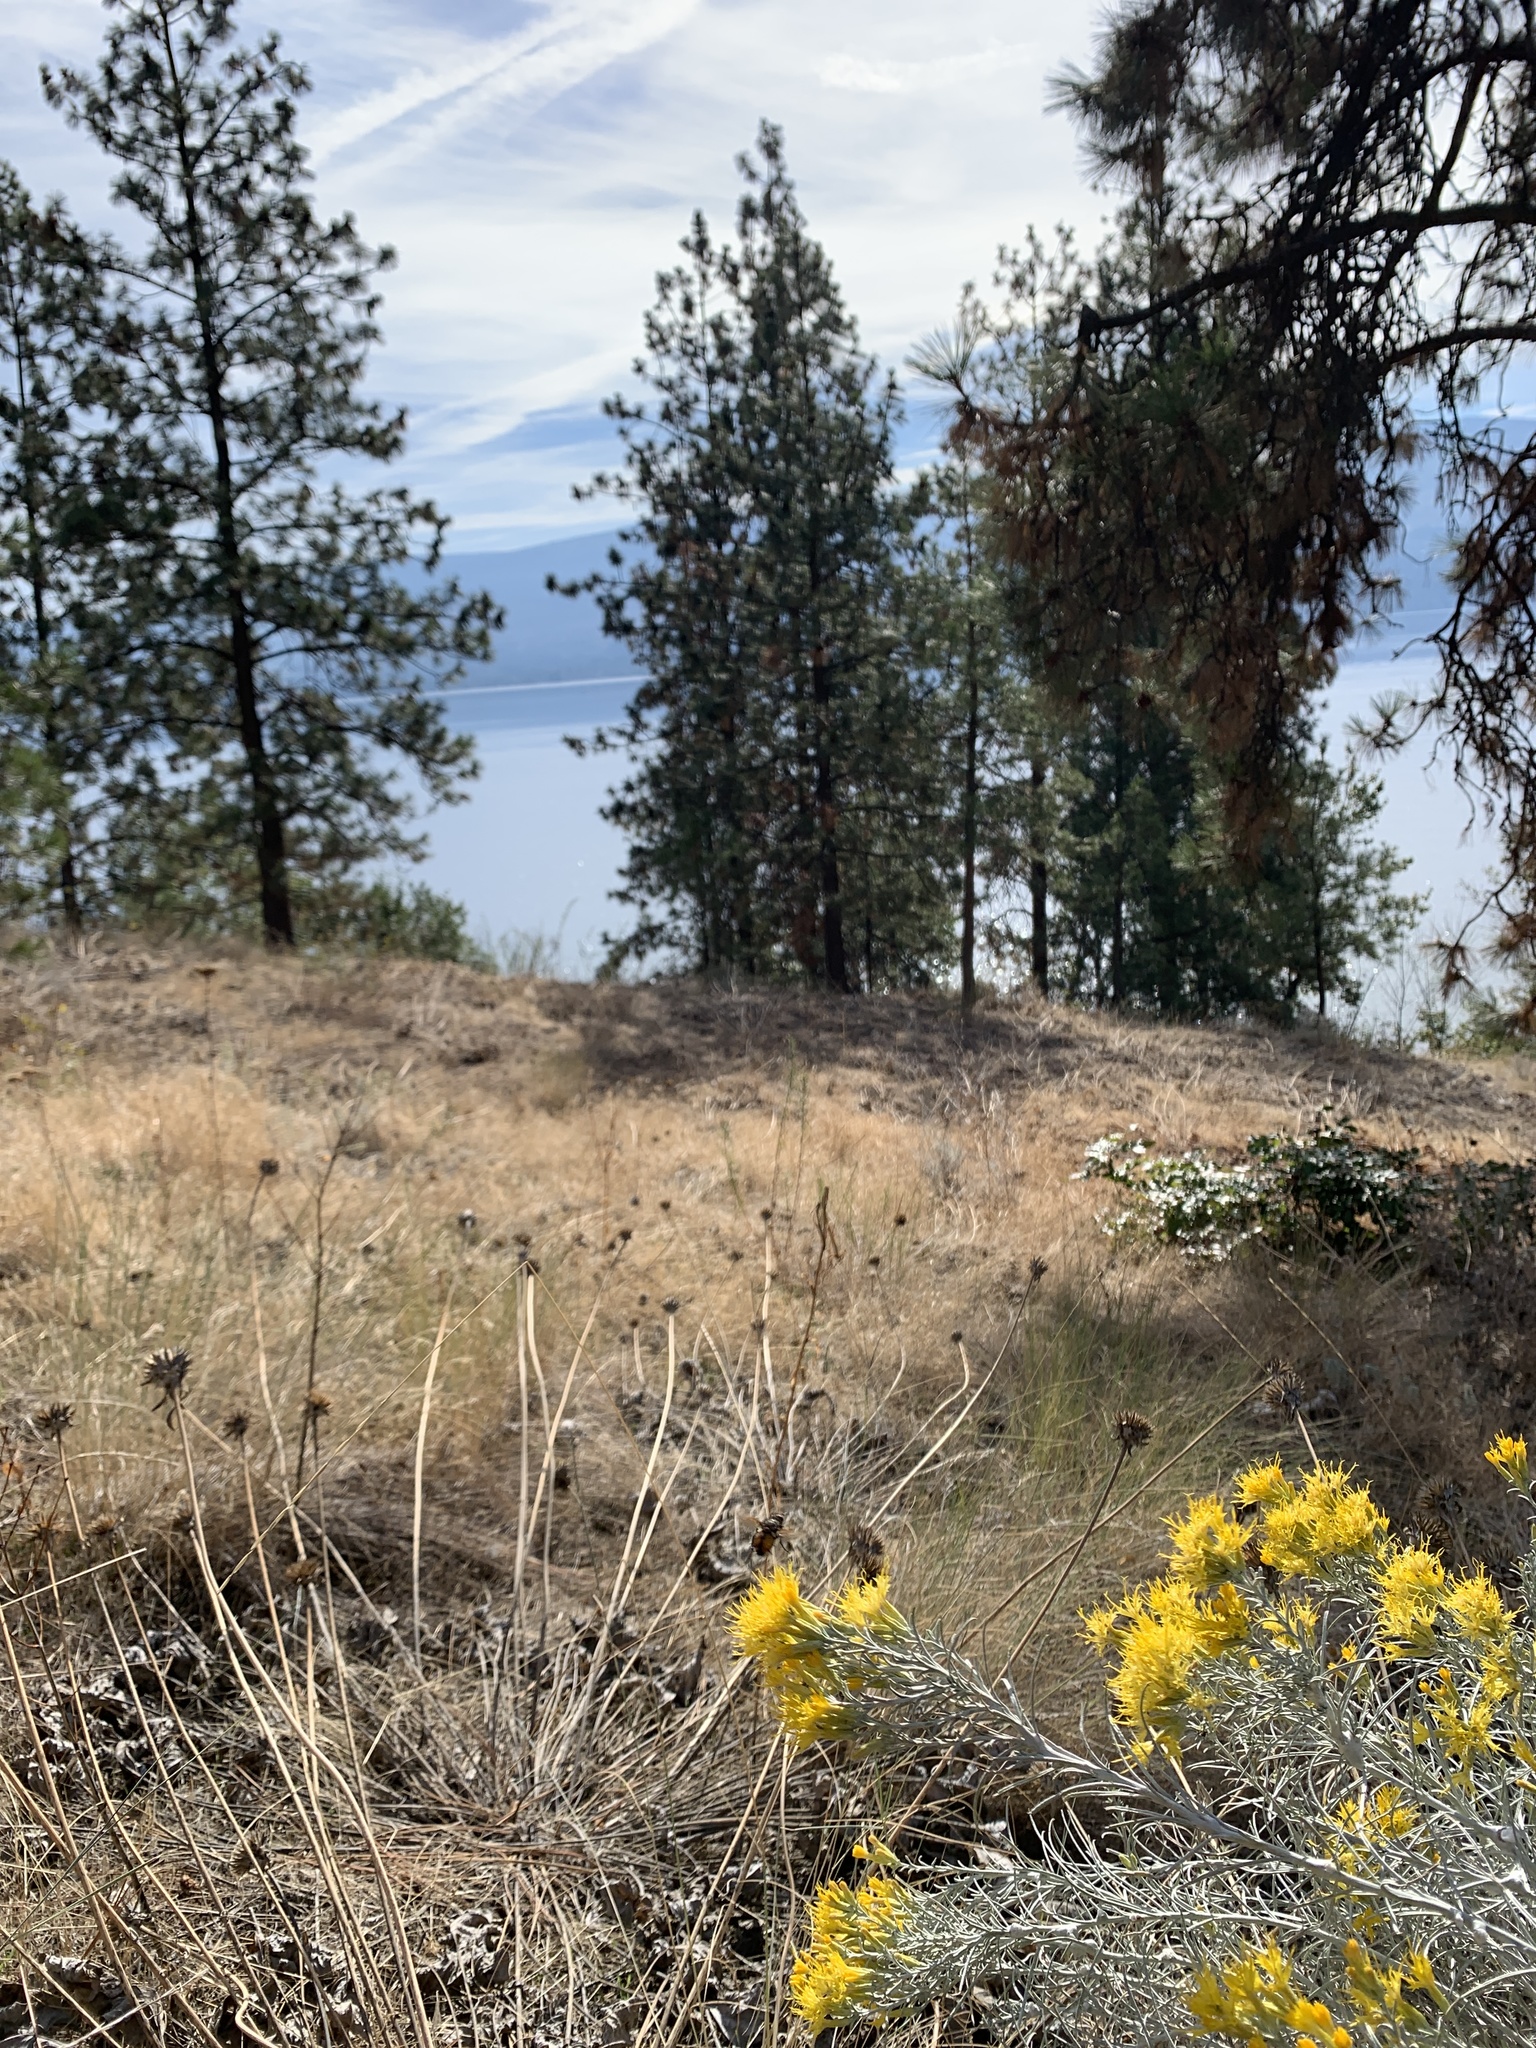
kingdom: Plantae
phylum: Tracheophyta
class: Magnoliopsida
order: Asterales
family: Asteraceae
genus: Ericameria
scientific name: Ericameria nauseosa
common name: Rubber rabbitbrush
